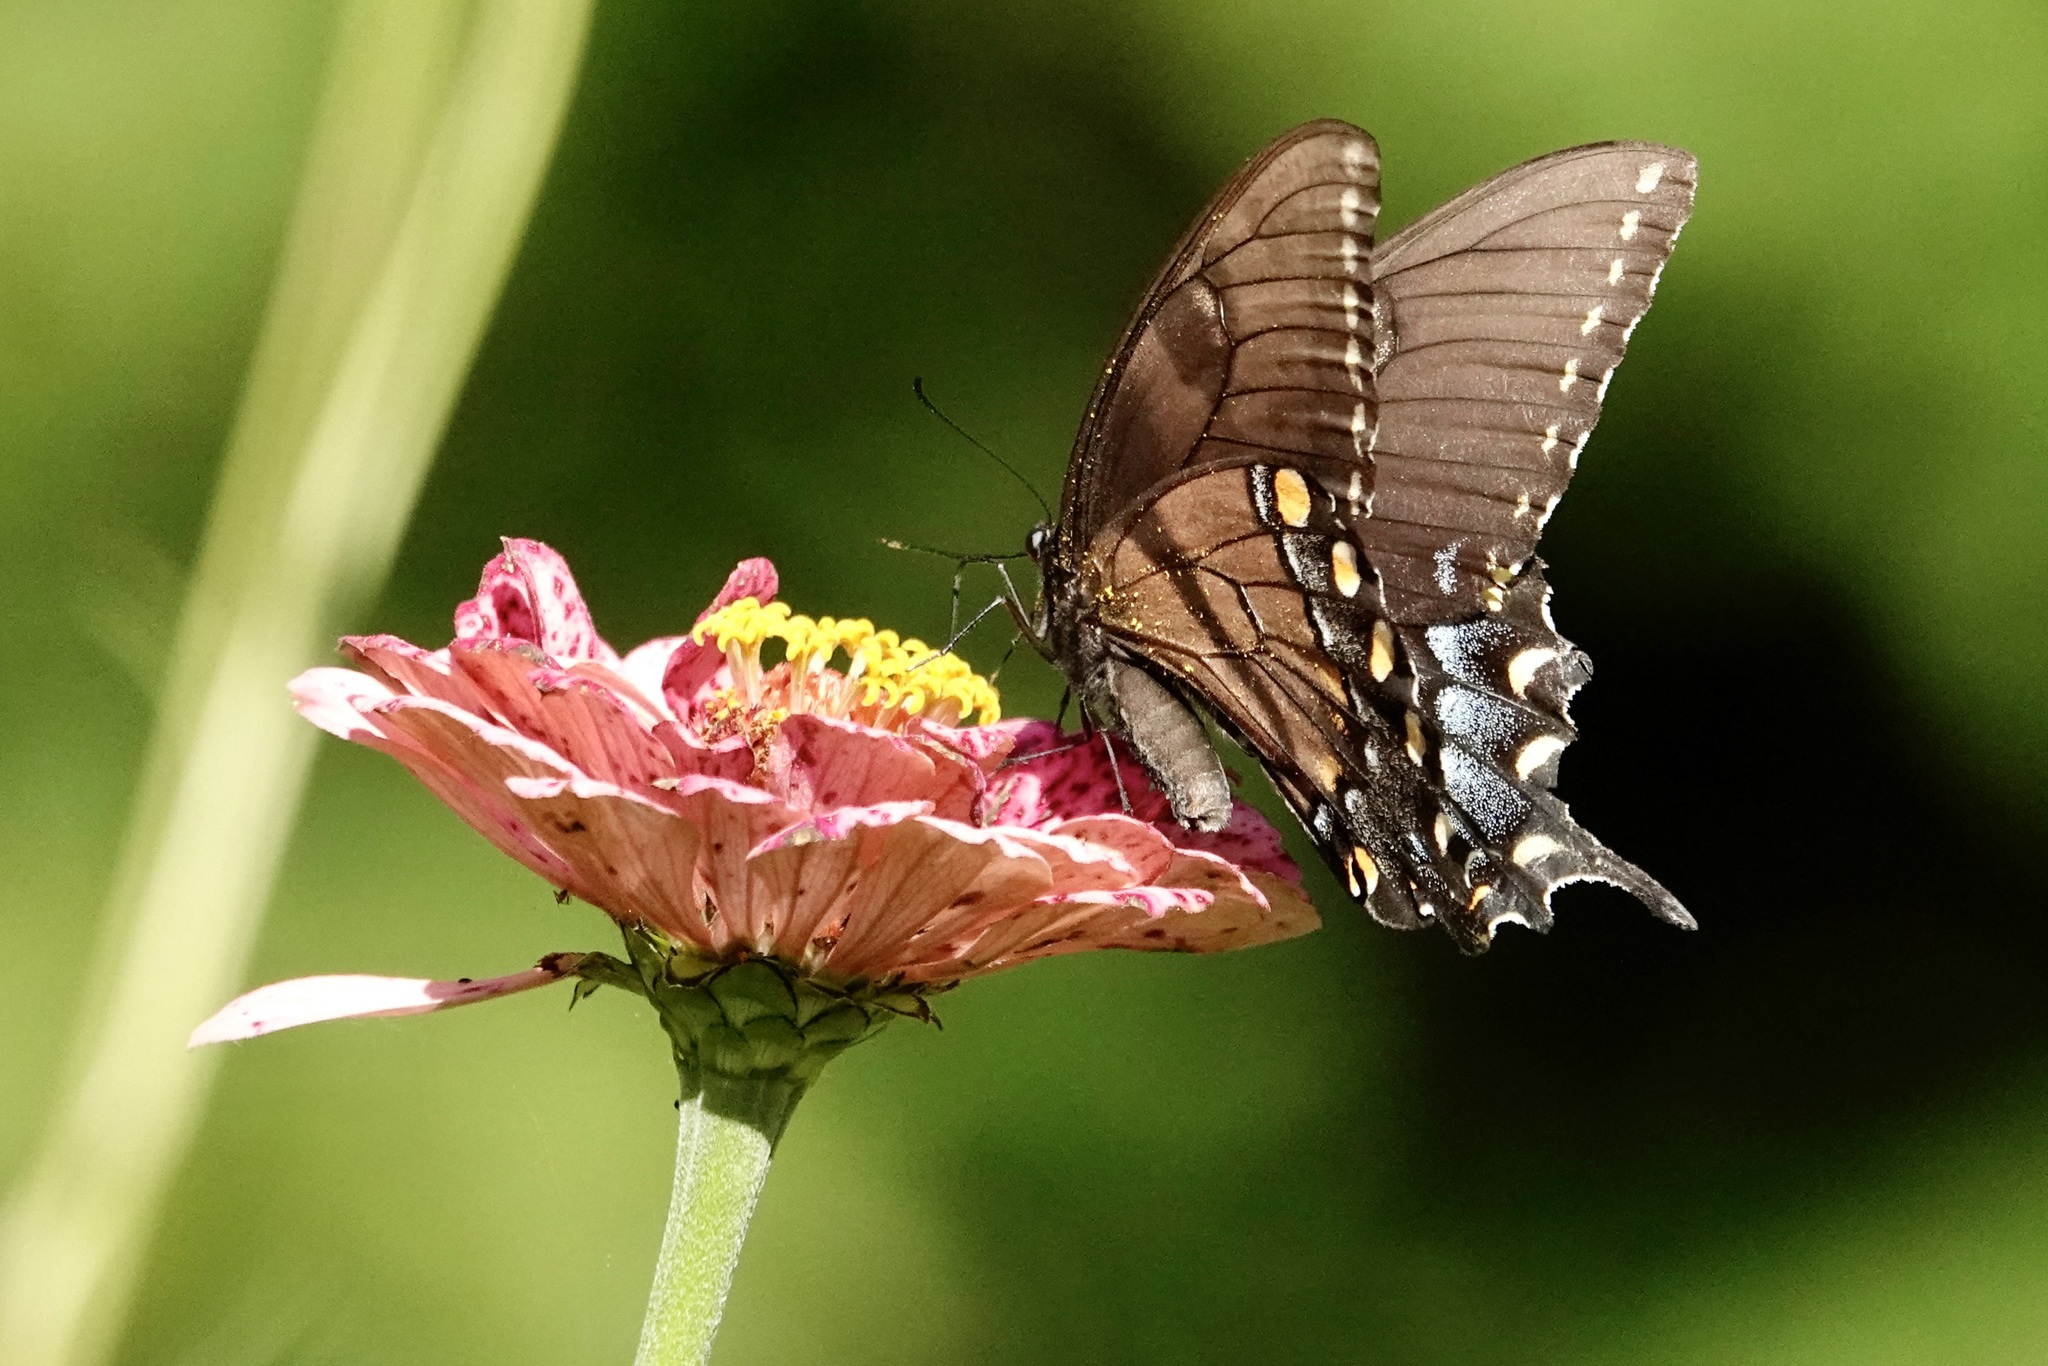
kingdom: Animalia
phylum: Arthropoda
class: Insecta
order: Lepidoptera
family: Papilionidae
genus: Papilio
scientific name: Papilio glaucus
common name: Tiger swallowtail
